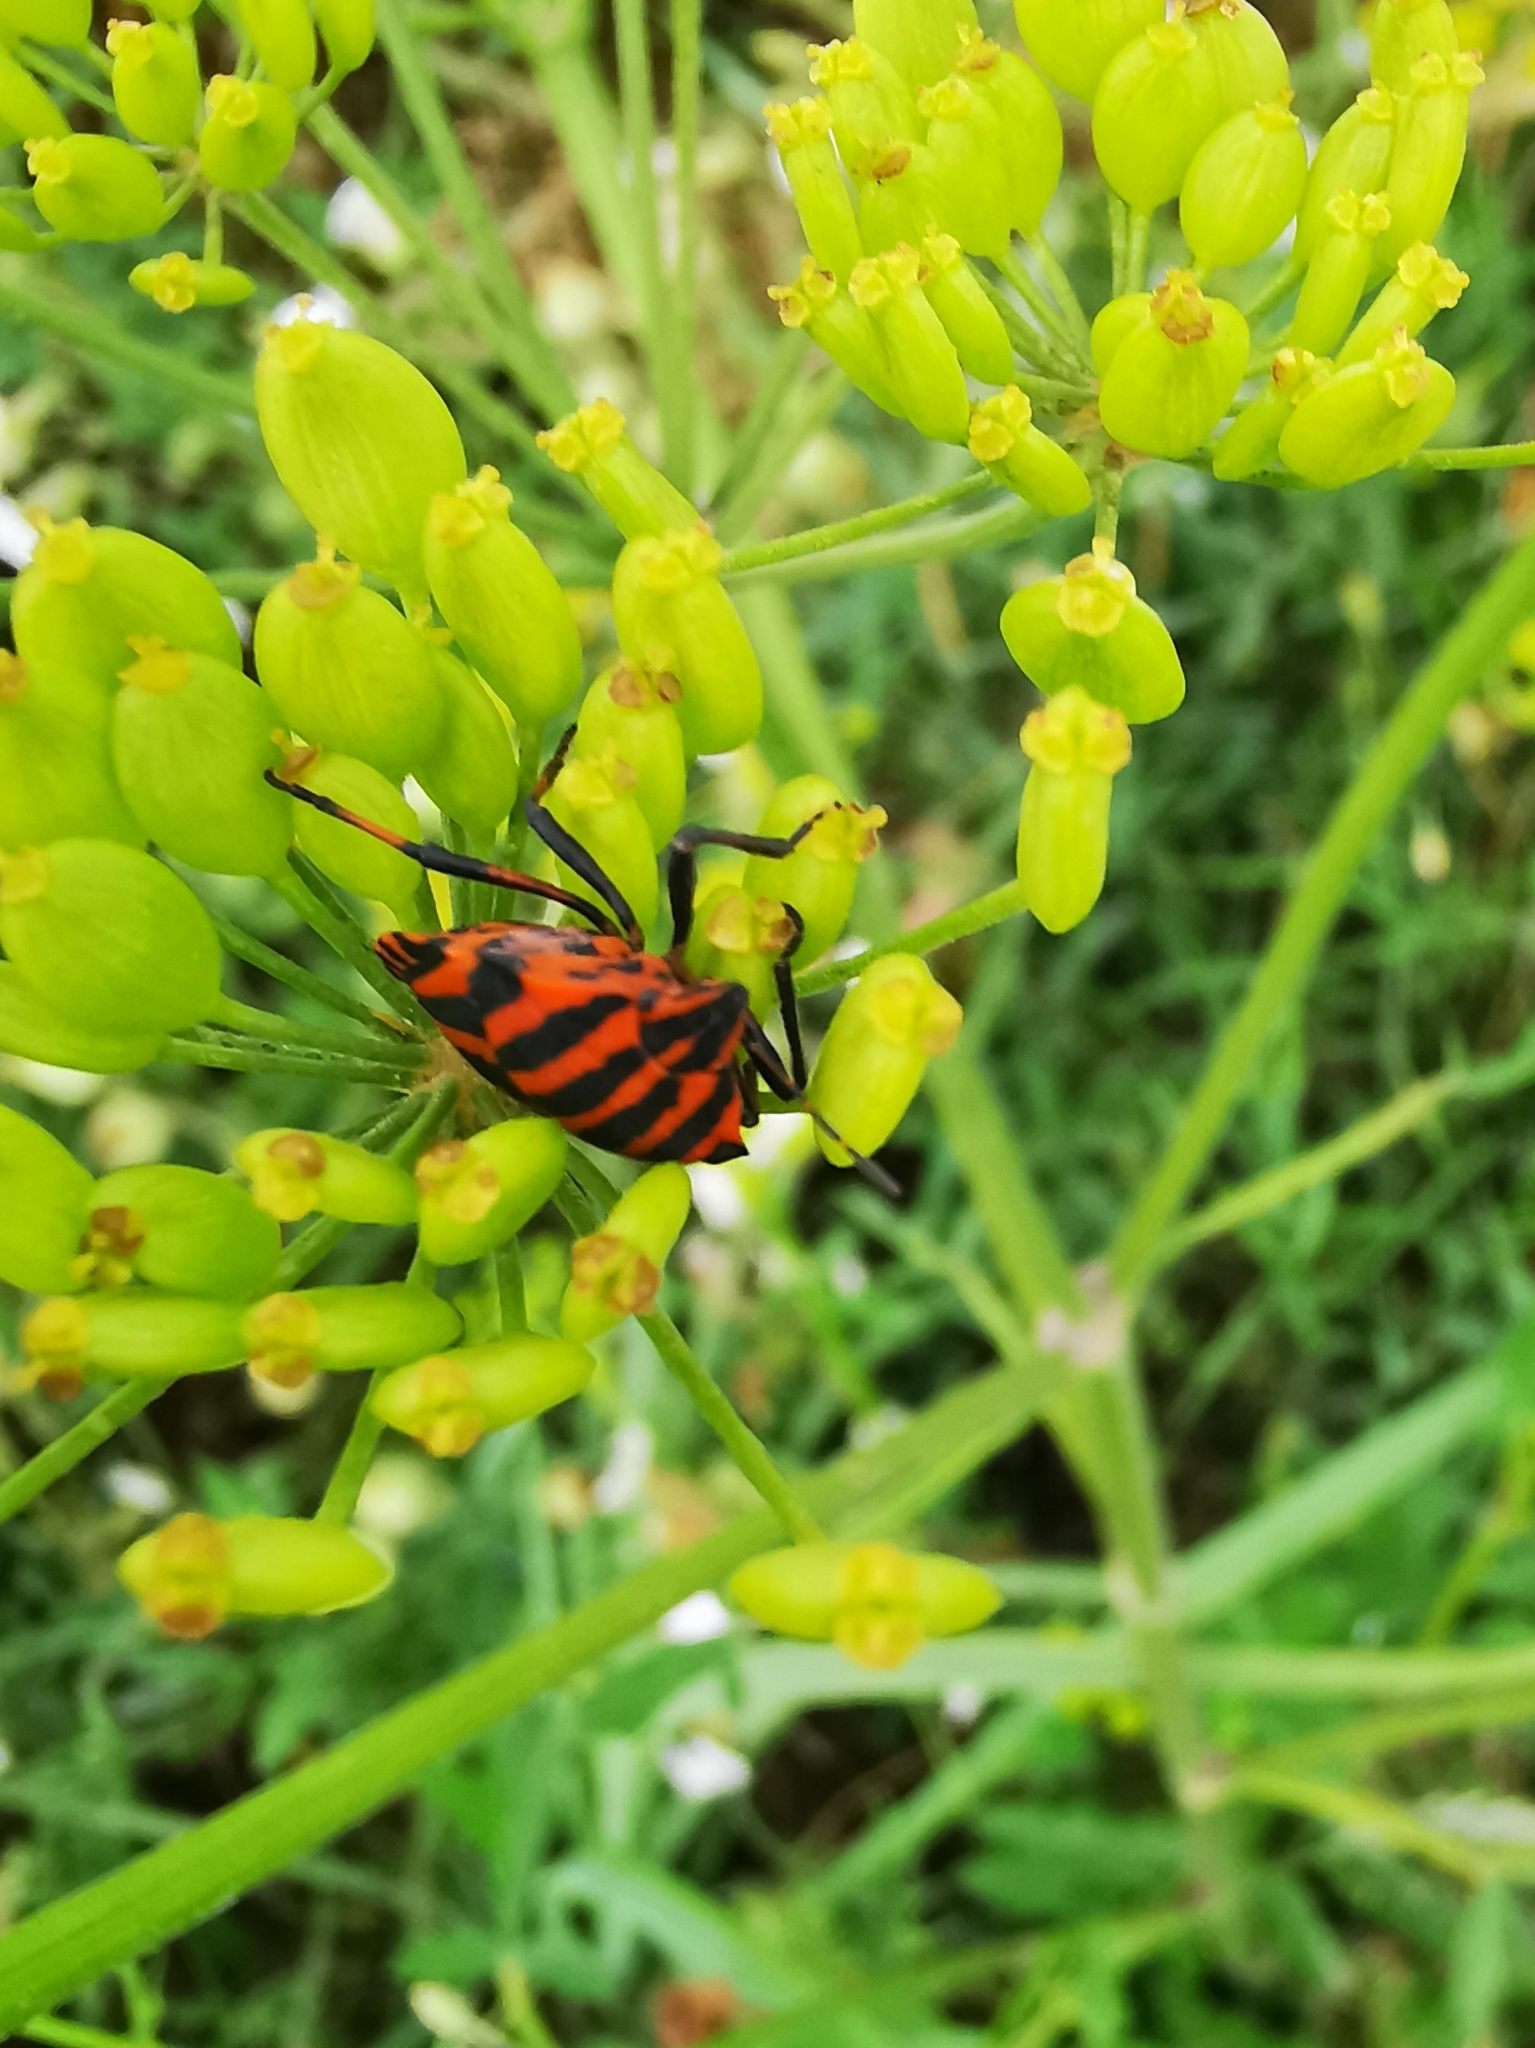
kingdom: Animalia
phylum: Arthropoda
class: Insecta
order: Hemiptera
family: Pentatomidae
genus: Graphosoma
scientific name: Graphosoma italicum
